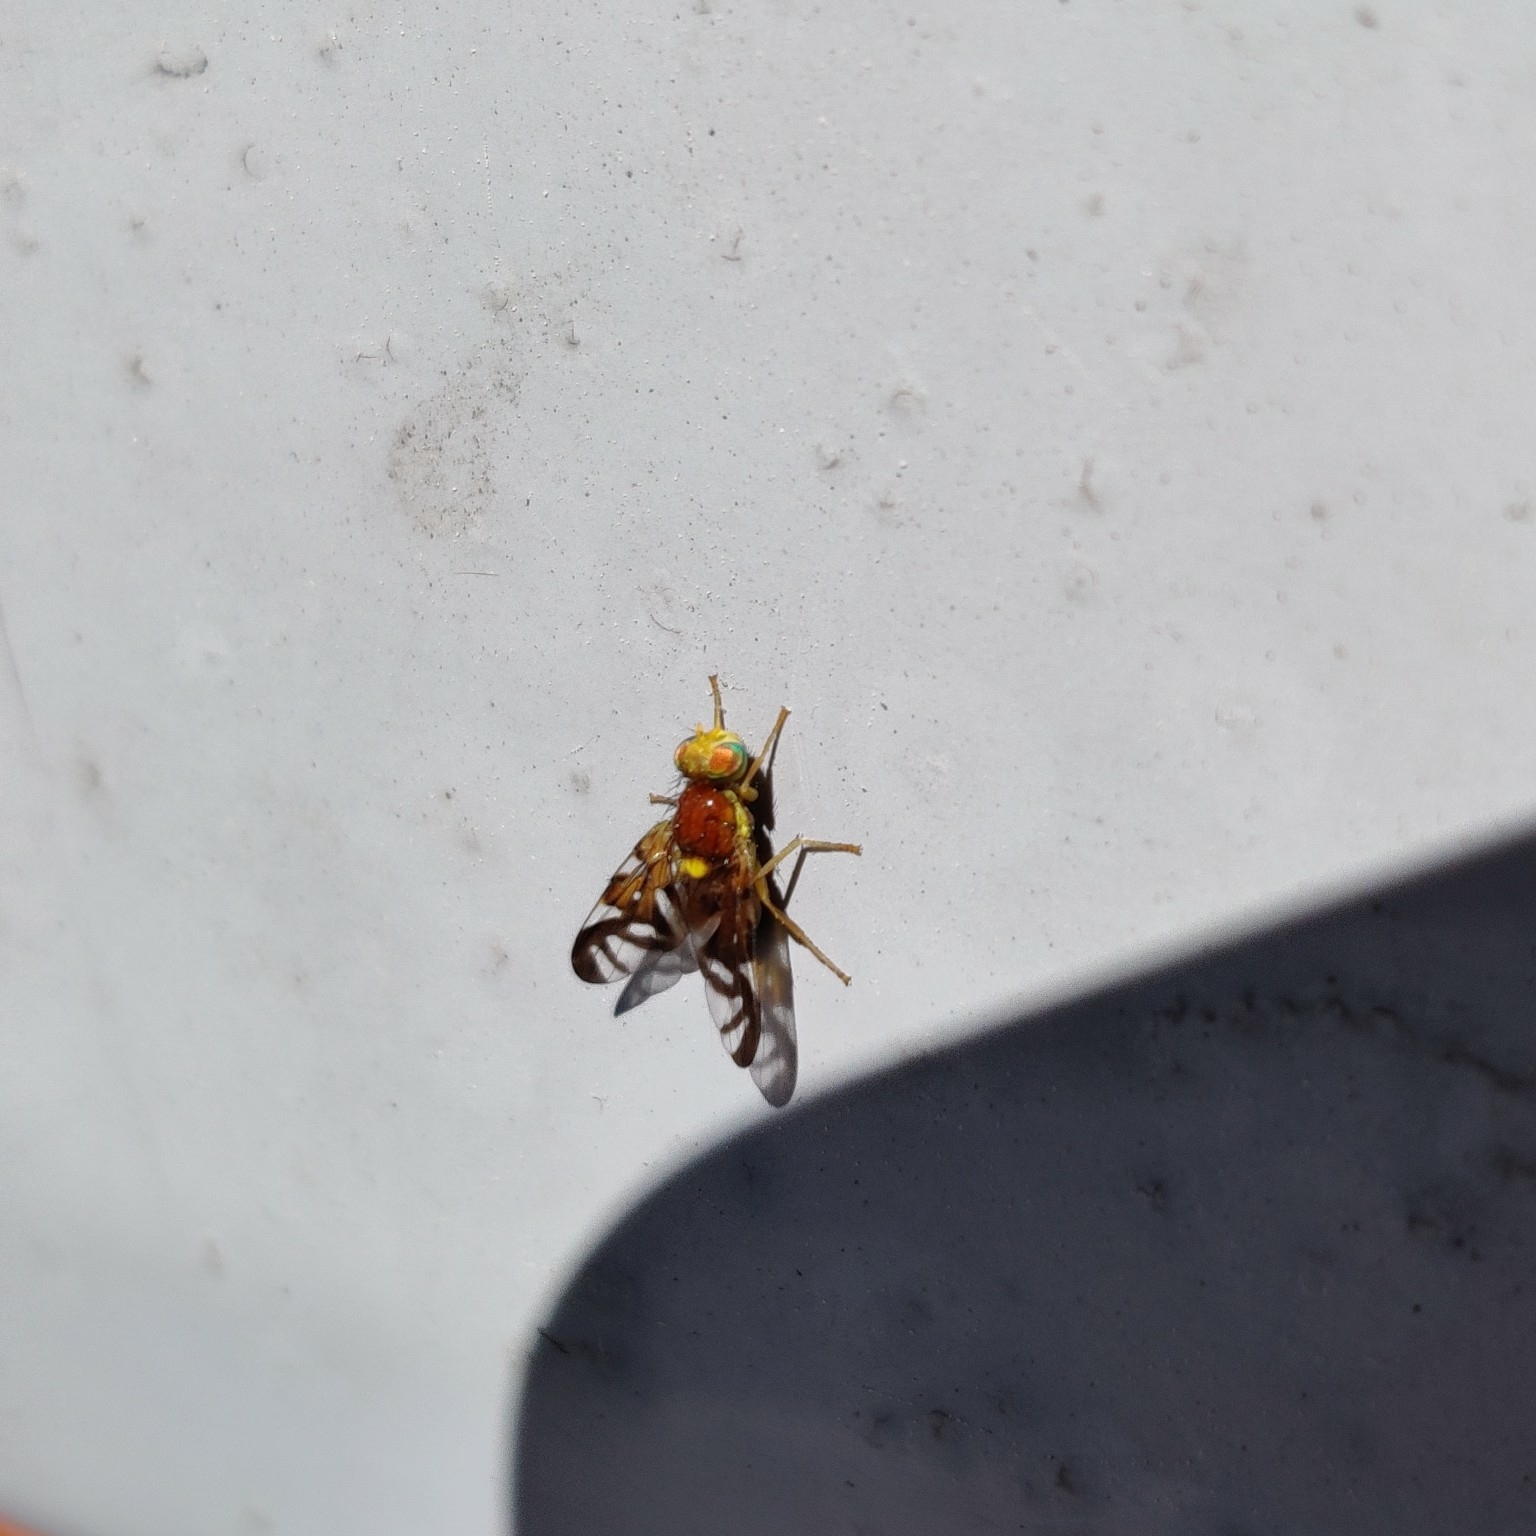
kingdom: Animalia
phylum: Arthropoda
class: Insecta
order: Diptera
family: Tephritidae
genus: Euleia
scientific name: Euleia heraclei
